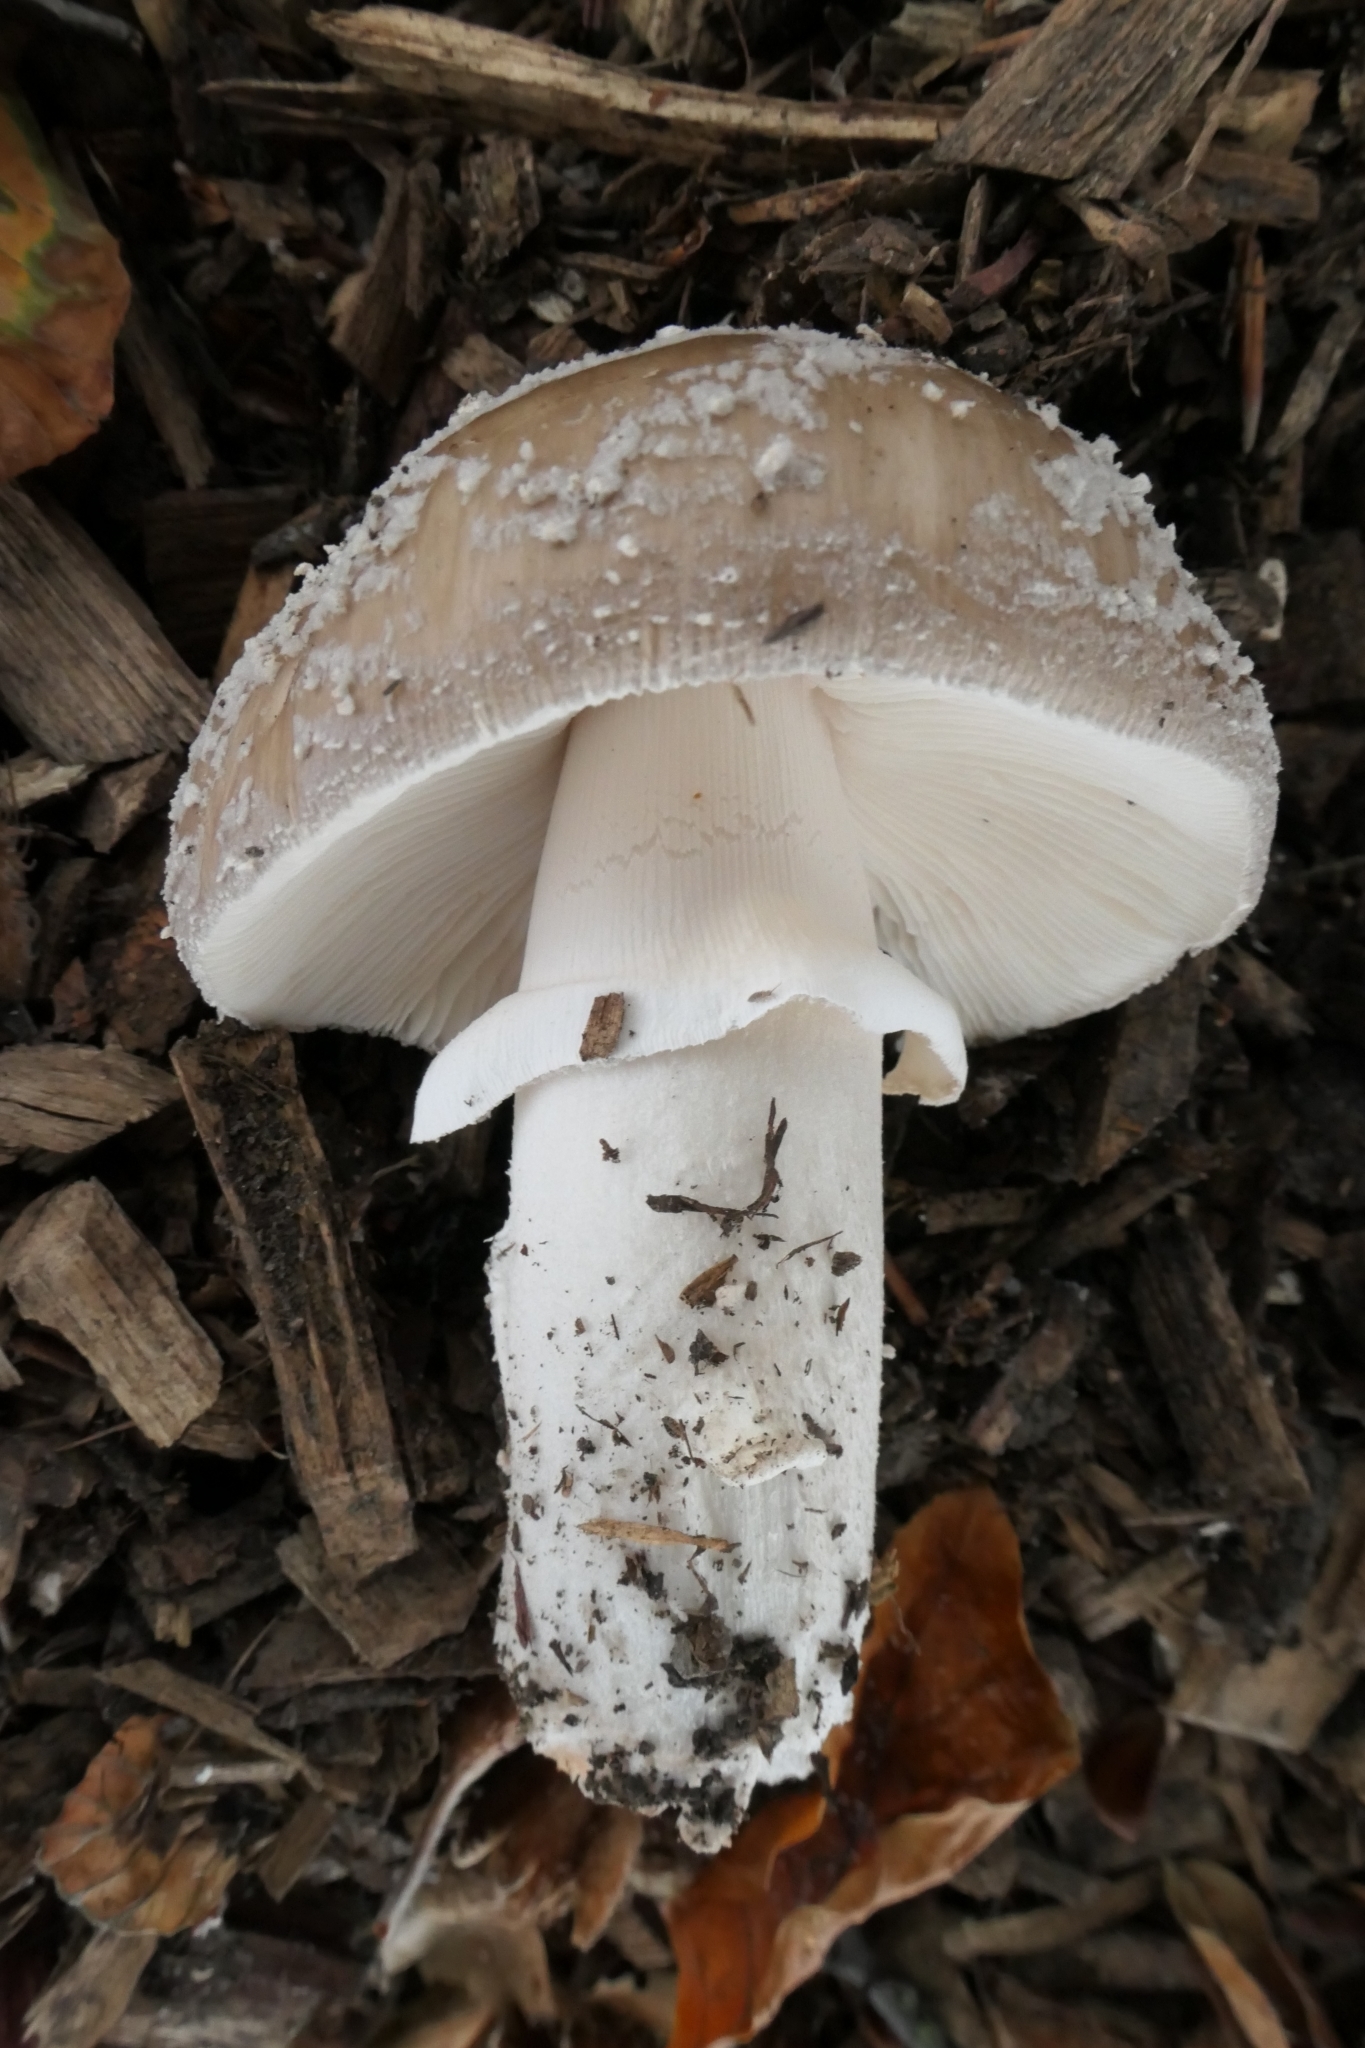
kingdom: Fungi
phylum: Basidiomycota
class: Agaricomycetes
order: Agaricales
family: Amanitaceae
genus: Amanita
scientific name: Amanita excelsa
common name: European false blusher
